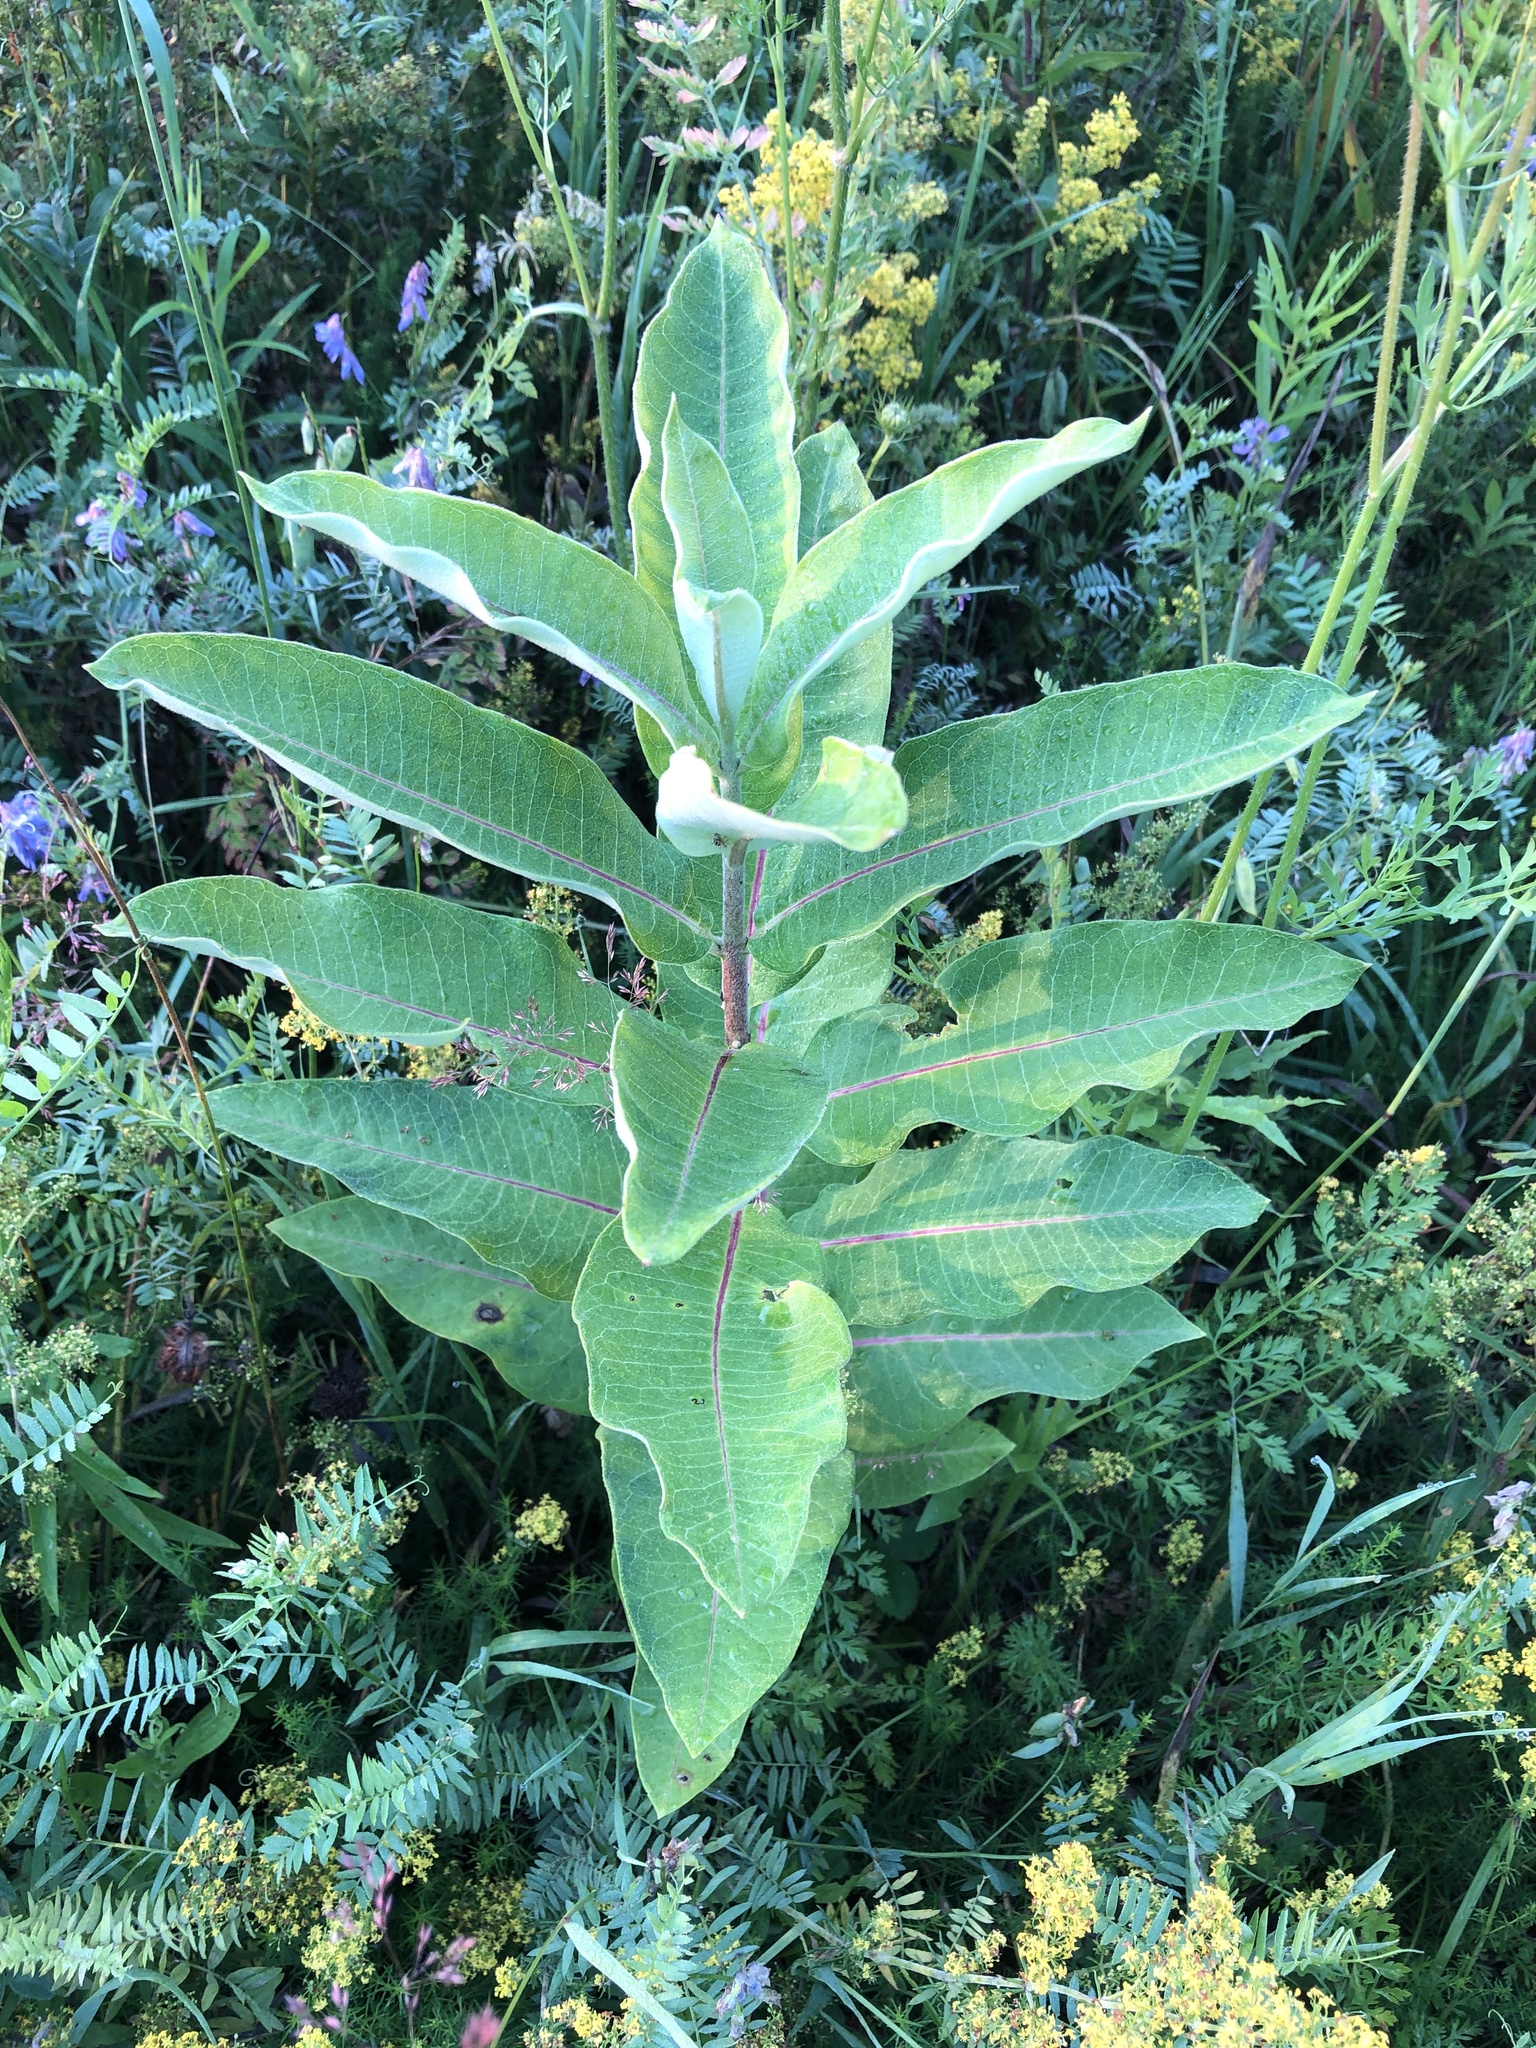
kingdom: Plantae
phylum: Tracheophyta
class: Magnoliopsida
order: Gentianales
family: Apocynaceae
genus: Asclepias
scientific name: Asclepias syriaca
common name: Common milkweed
